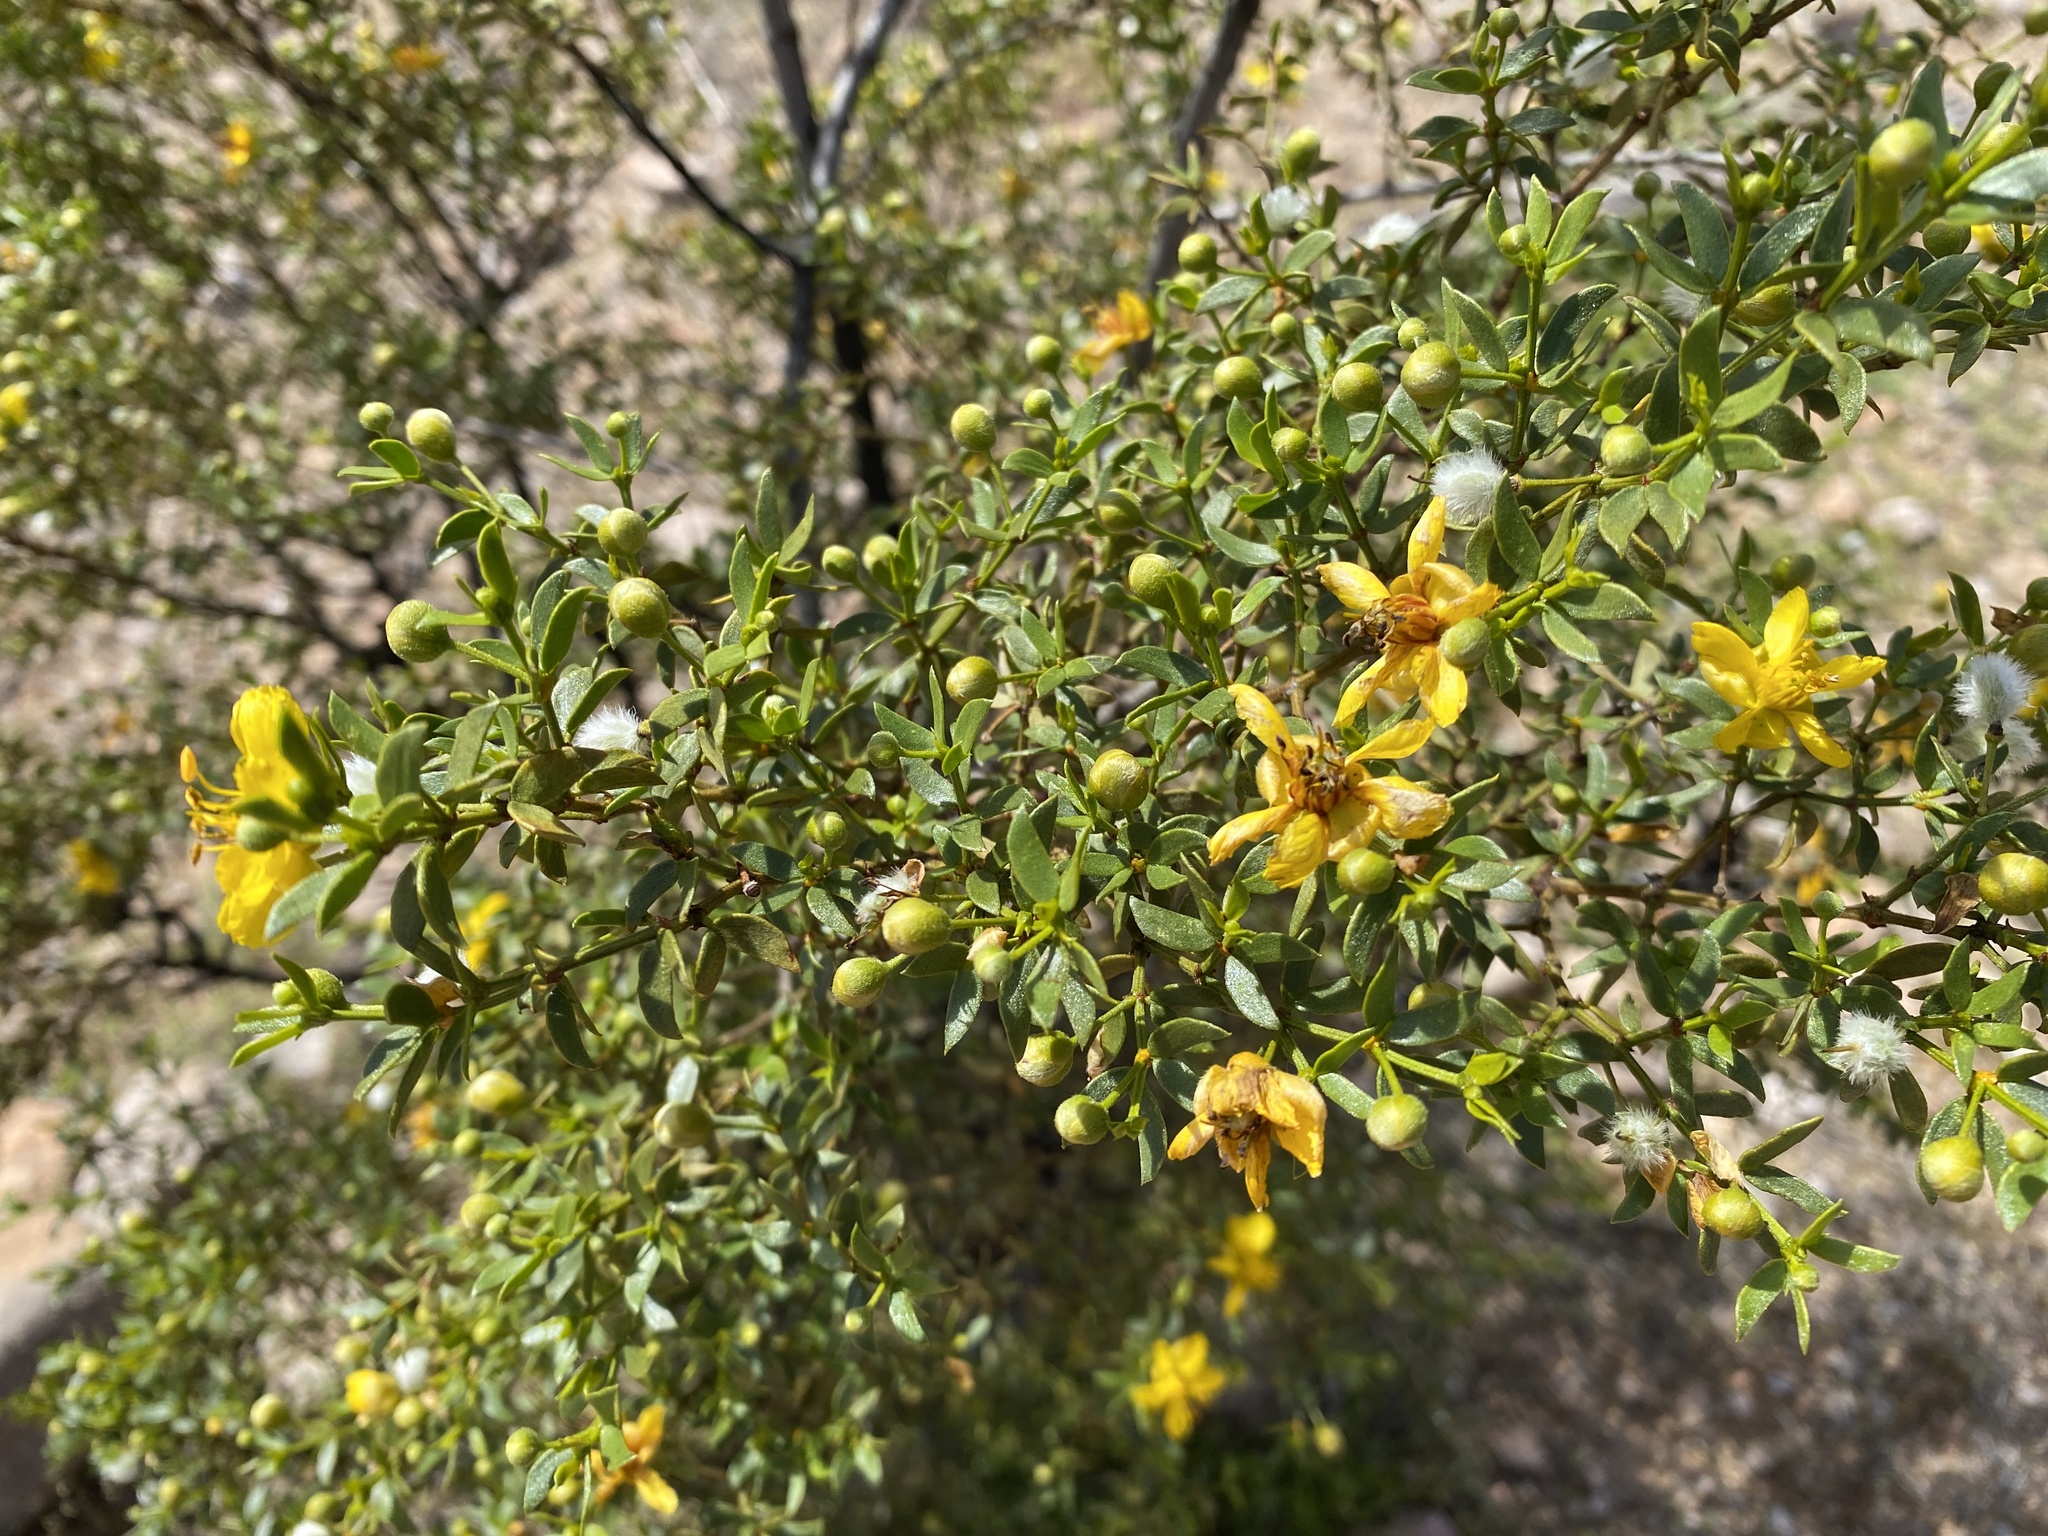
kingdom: Plantae
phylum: Tracheophyta
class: Magnoliopsida
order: Zygophyllales
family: Zygophyllaceae
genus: Larrea
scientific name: Larrea tridentata
